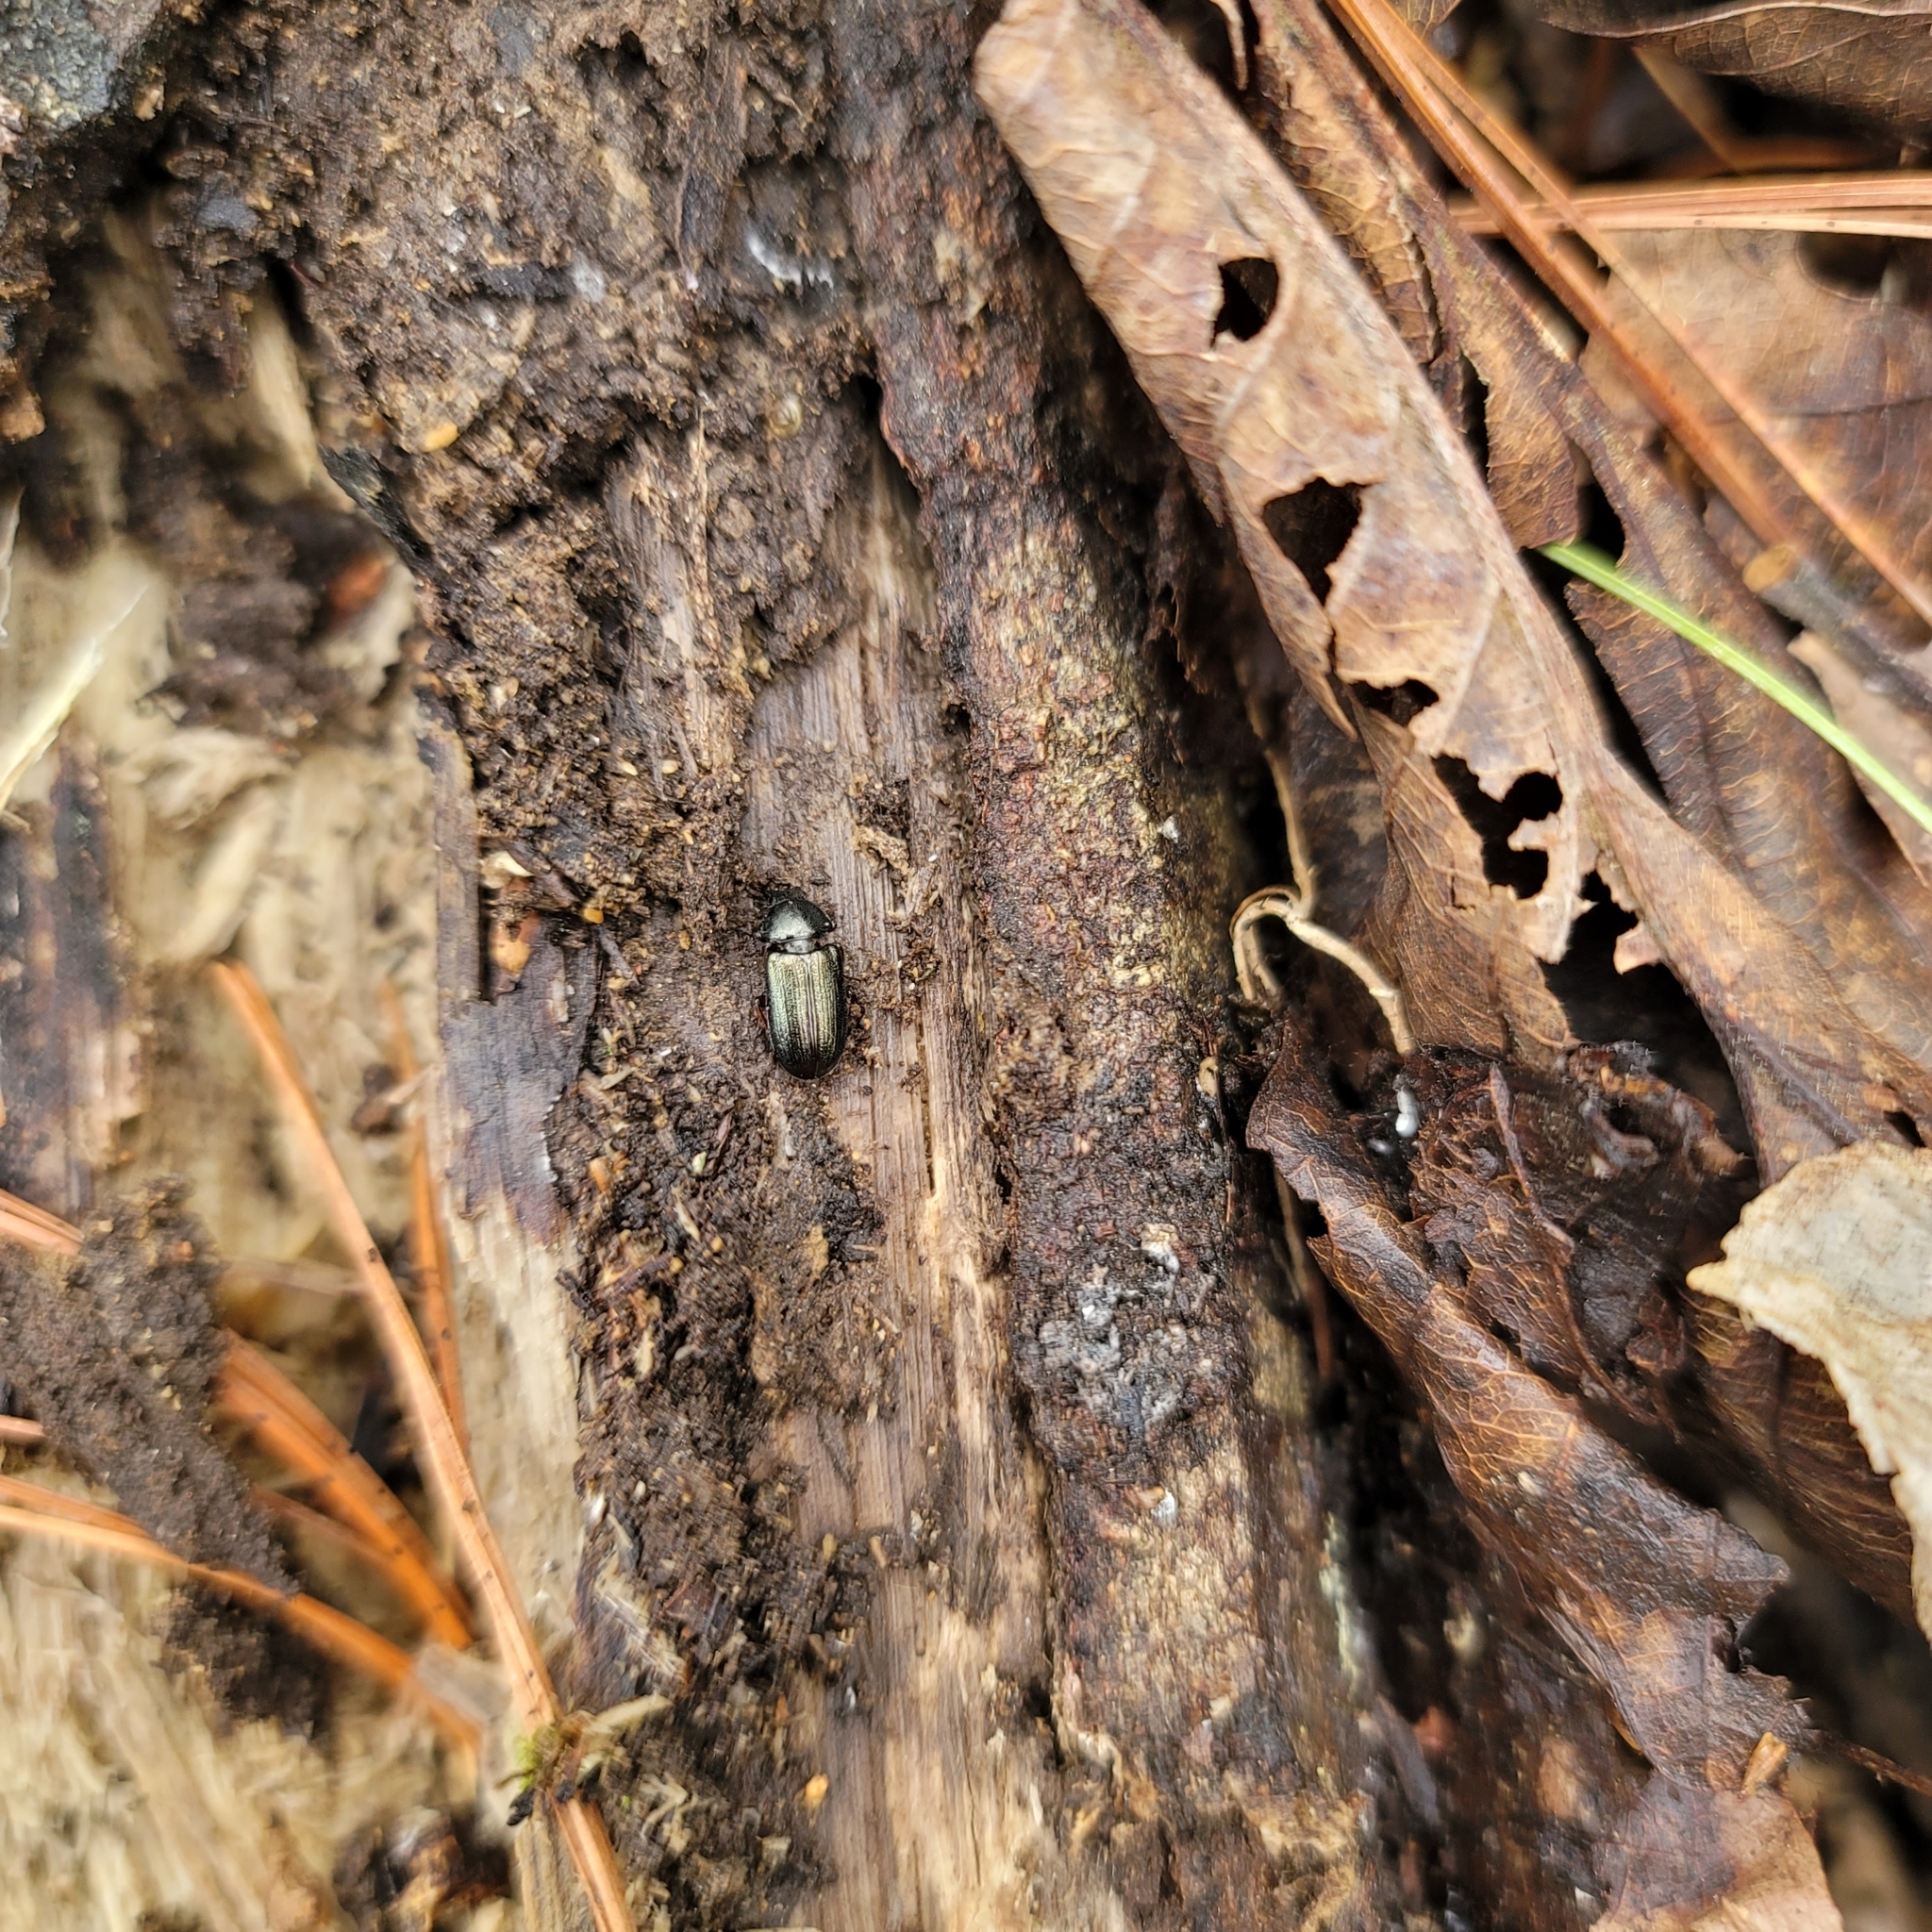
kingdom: Animalia
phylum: Arthropoda
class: Insecta
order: Coleoptera
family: Lucanidae
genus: Platycerus
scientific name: Platycerus quercus
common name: Oak stag beetle
